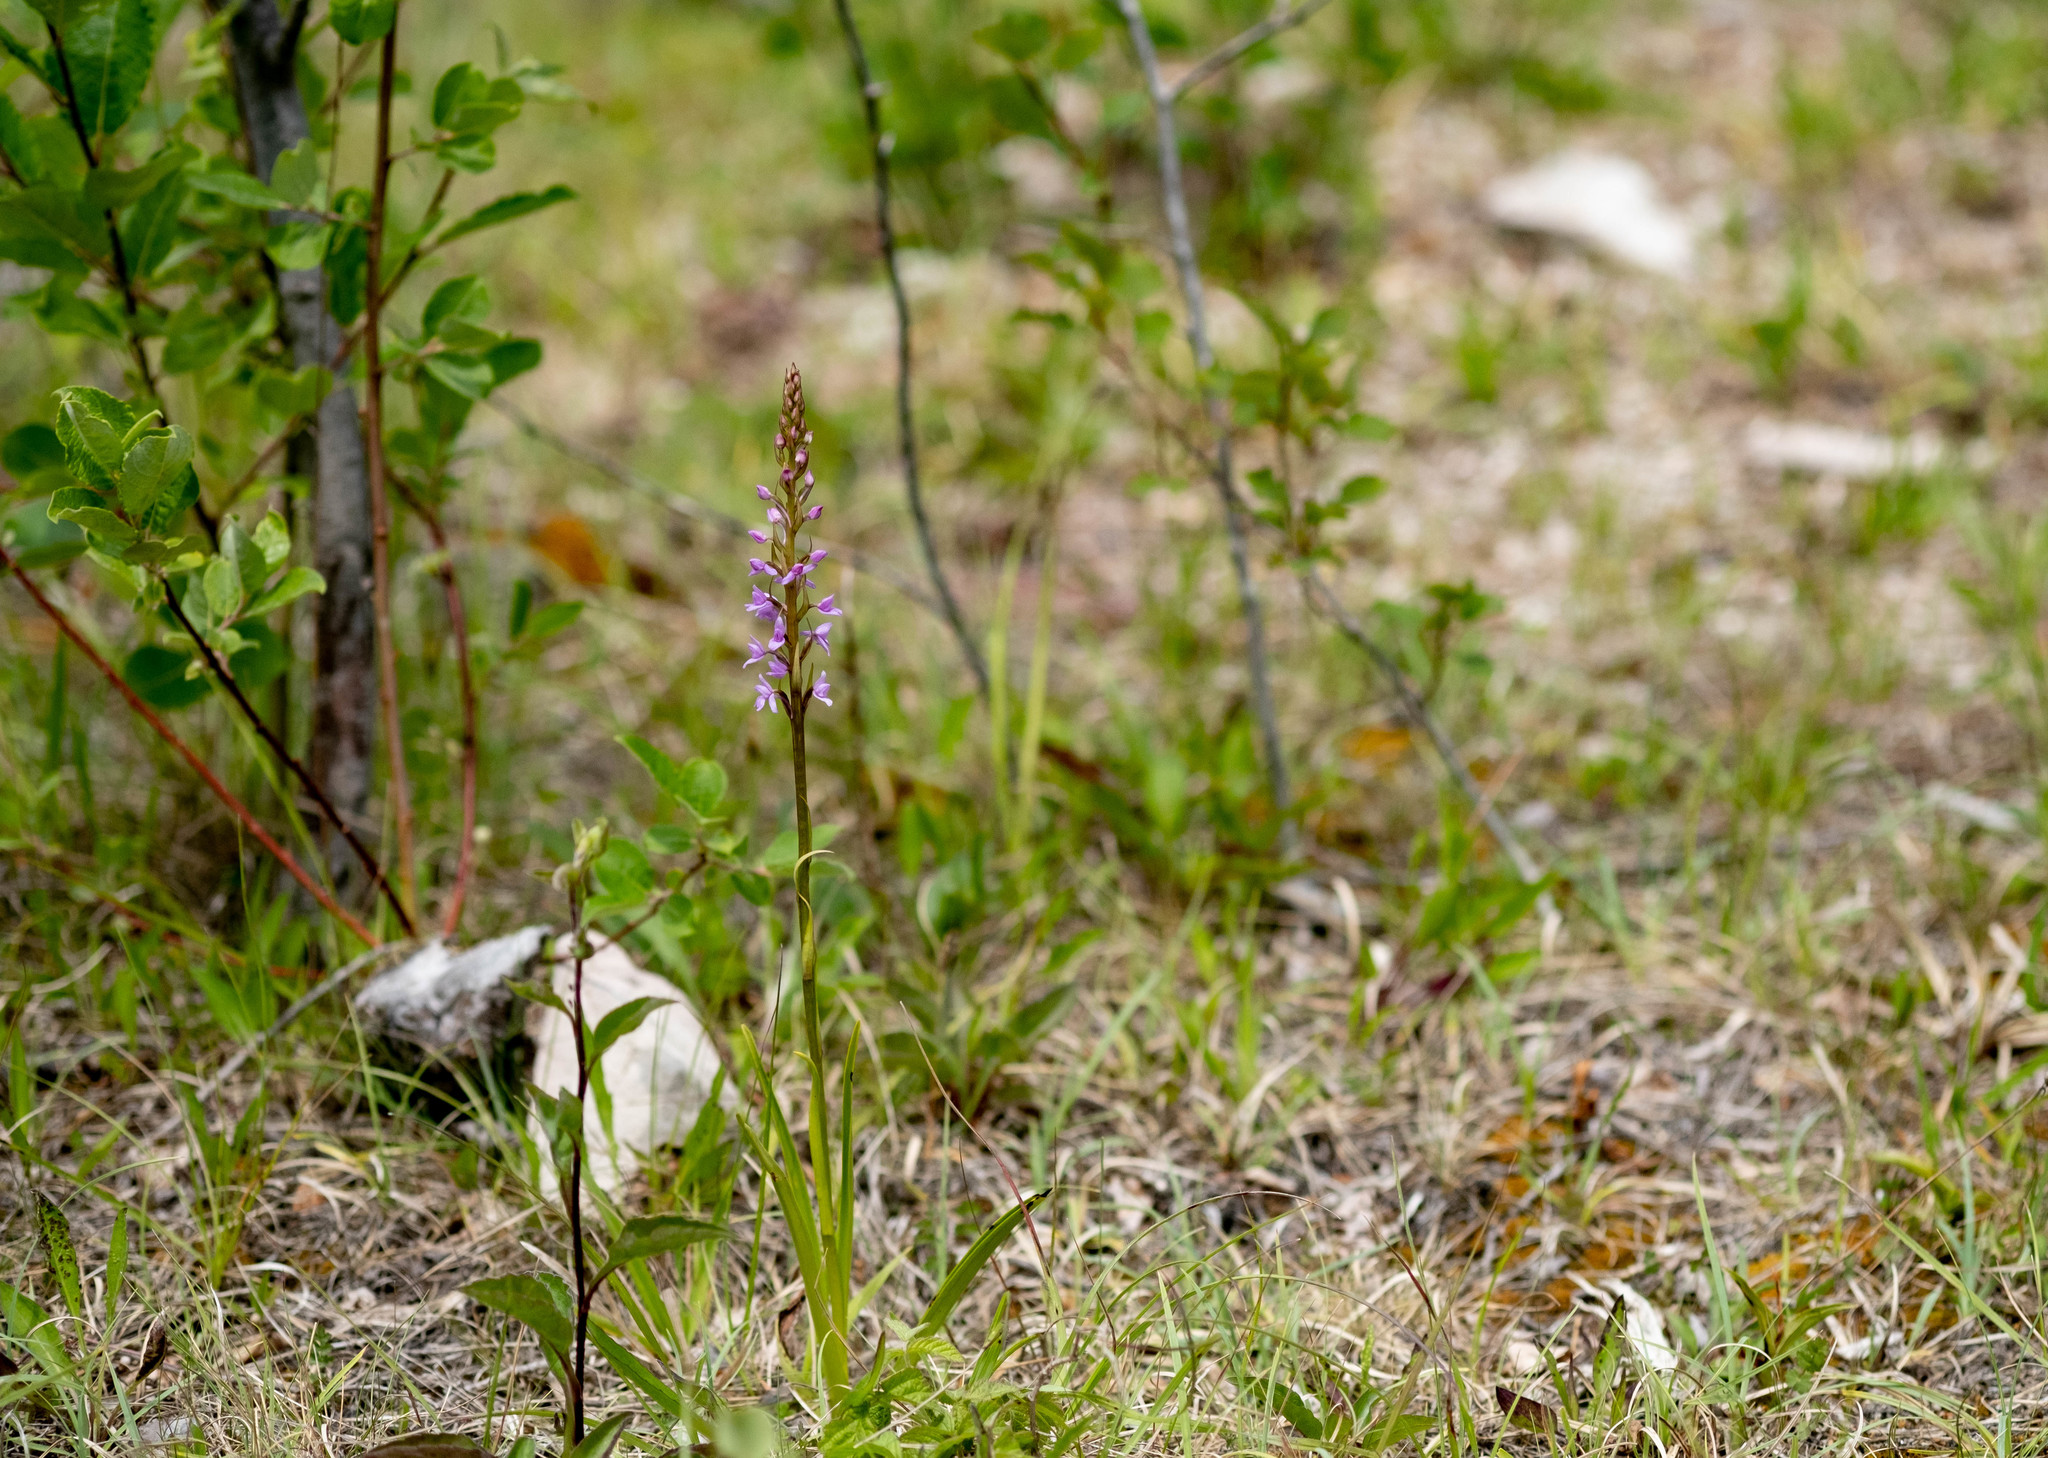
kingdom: Plantae
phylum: Tracheophyta
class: Liliopsida
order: Asparagales
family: Orchidaceae
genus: Gymnadenia
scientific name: Gymnadenia conopsea
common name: Fragrant orchid
